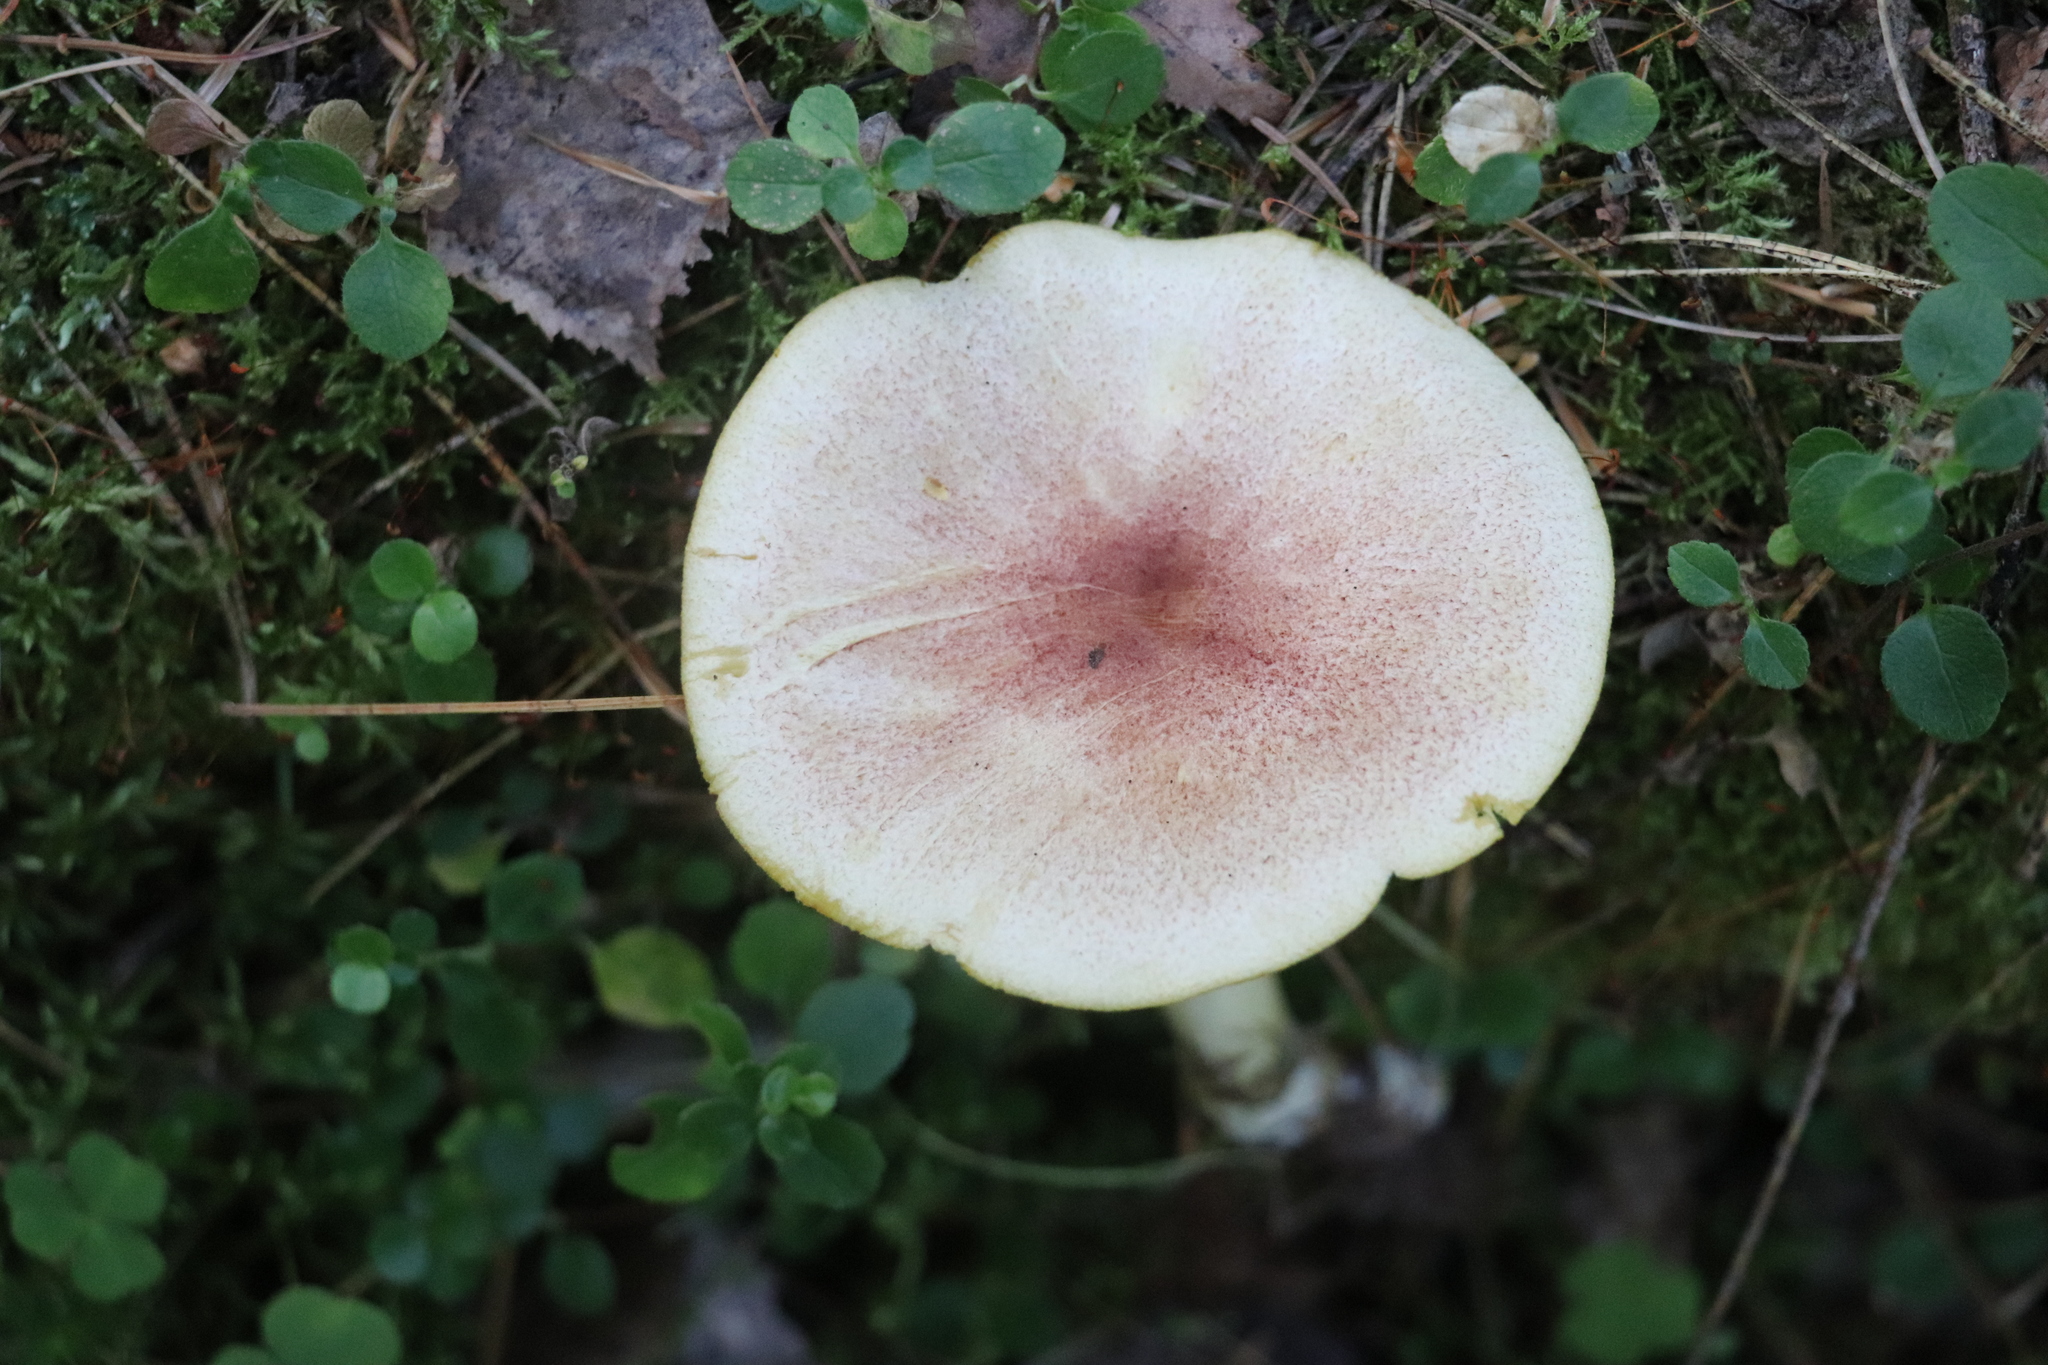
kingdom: Fungi
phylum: Basidiomycota
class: Agaricomycetes
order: Agaricales
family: Tricholomataceae
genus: Tricholomopsis
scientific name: Tricholomopsis rutilans
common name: Plums and custard
